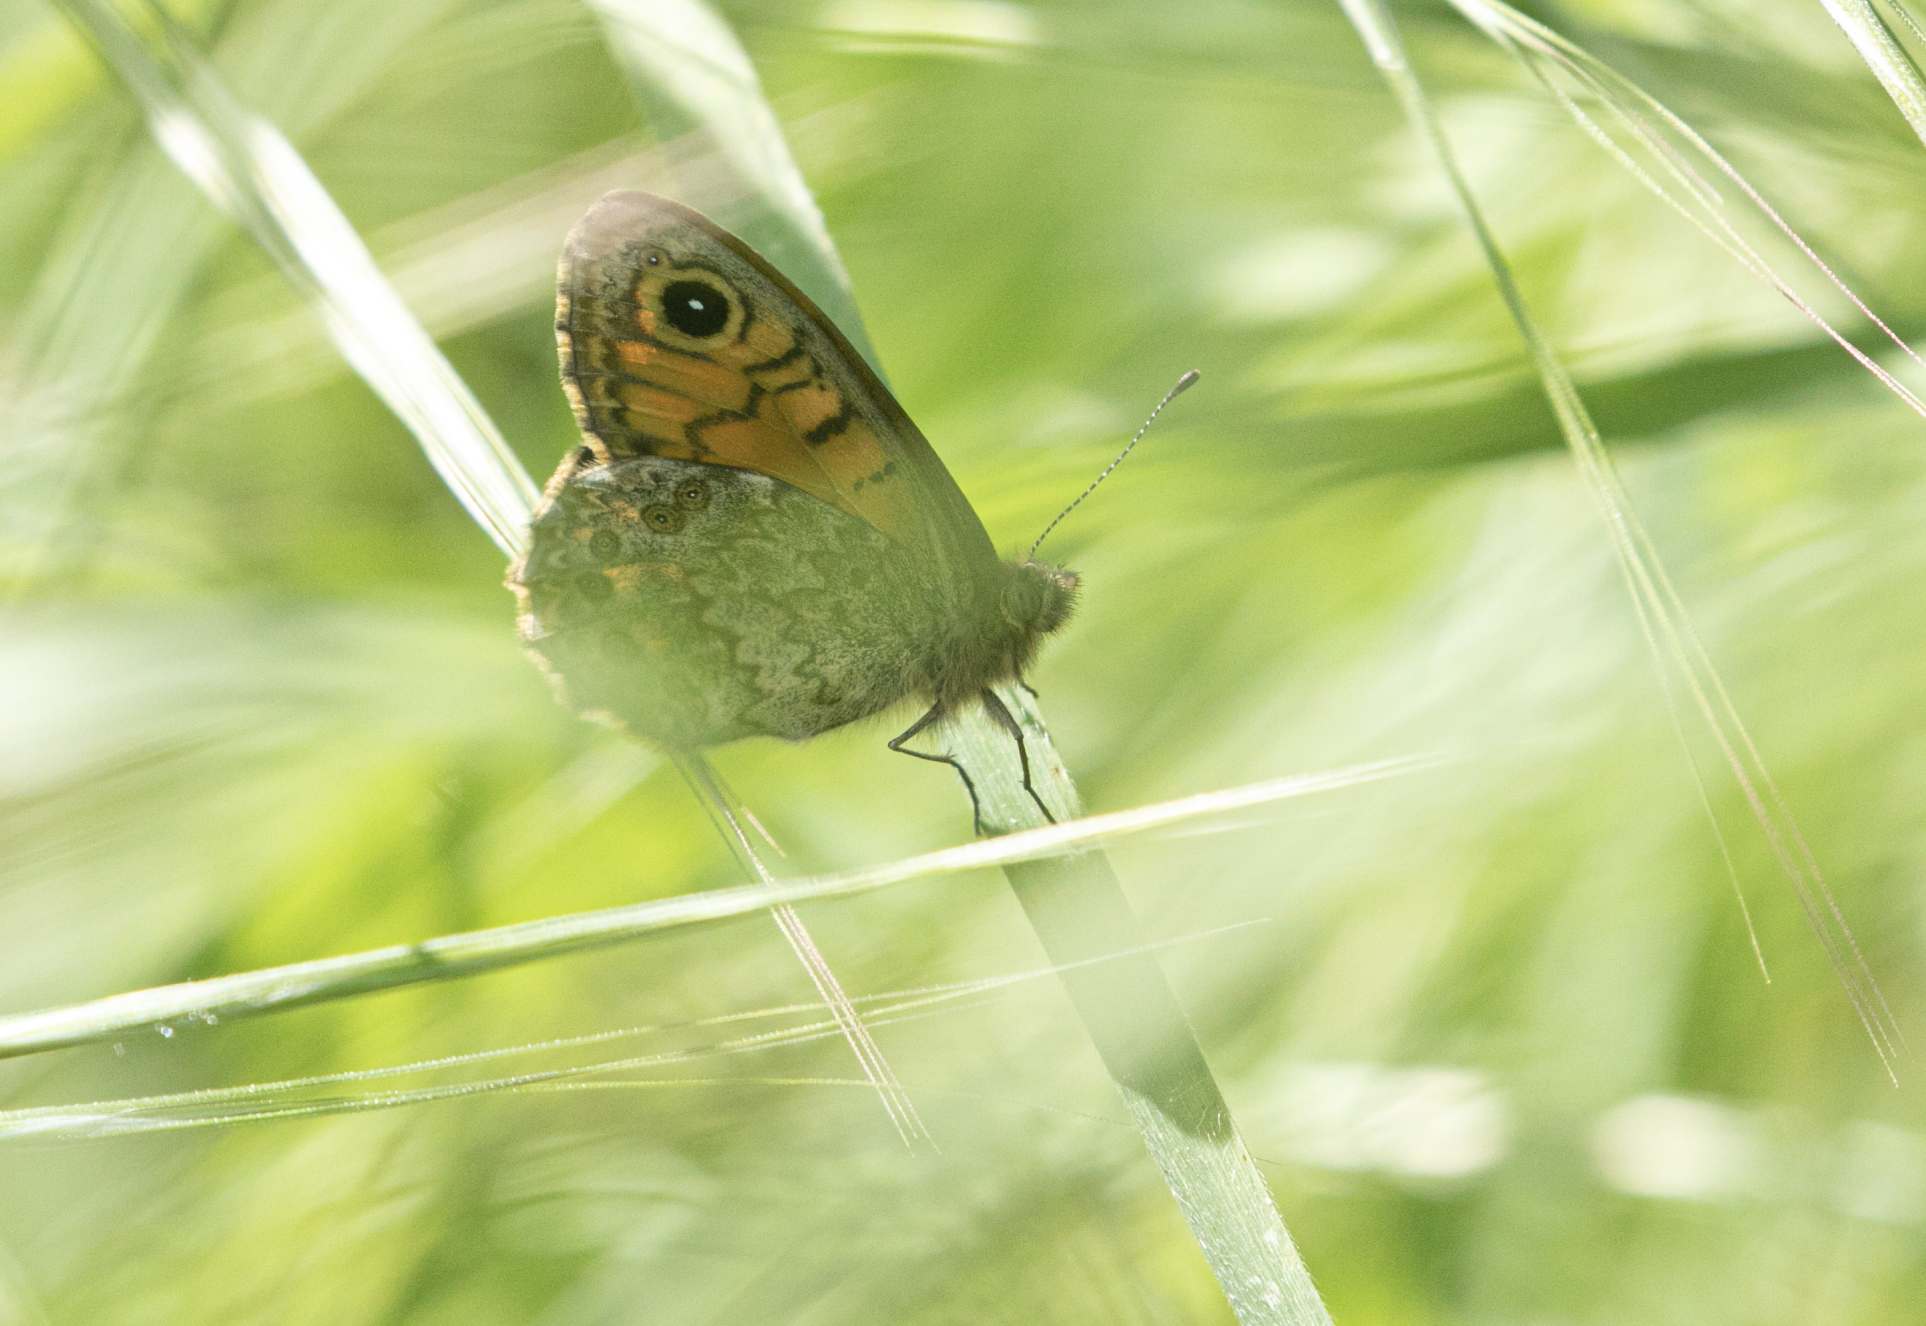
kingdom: Animalia
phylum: Arthropoda
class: Insecta
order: Lepidoptera
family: Nymphalidae
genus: Pararge
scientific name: Pararge Lasiommata megera
